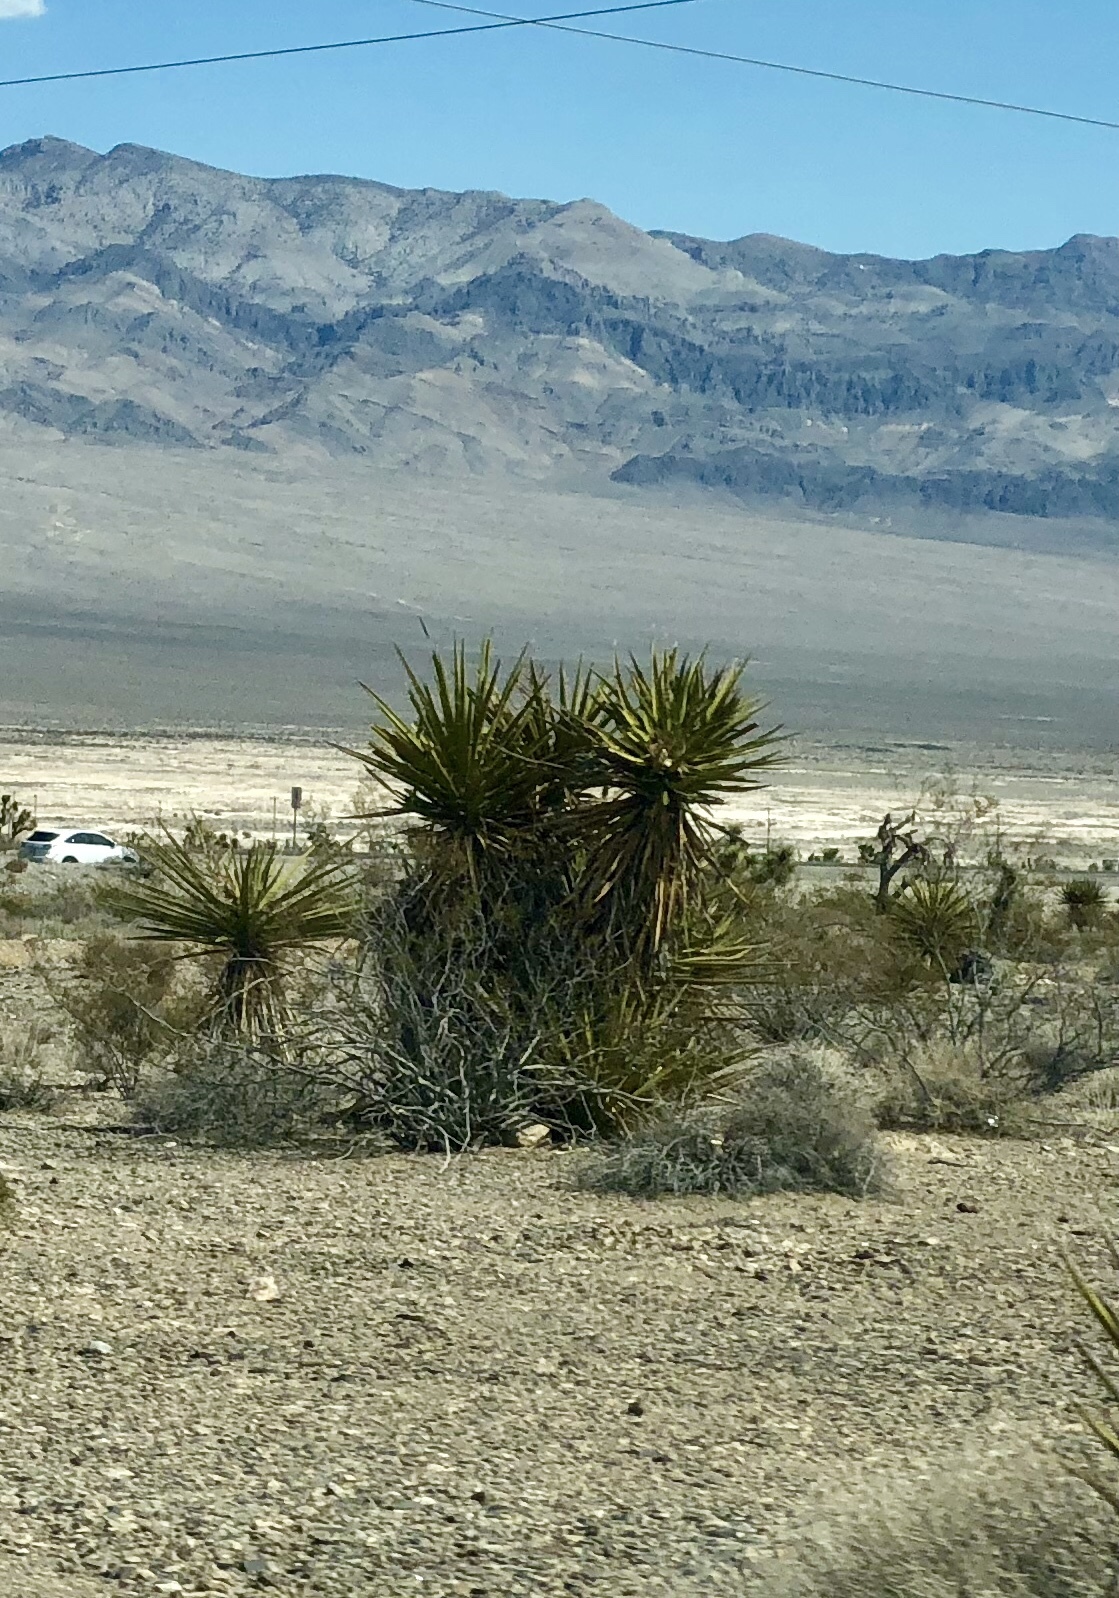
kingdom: Plantae
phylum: Tracheophyta
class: Liliopsida
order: Asparagales
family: Asparagaceae
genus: Yucca
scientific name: Yucca schidigera
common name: Mojave yucca
